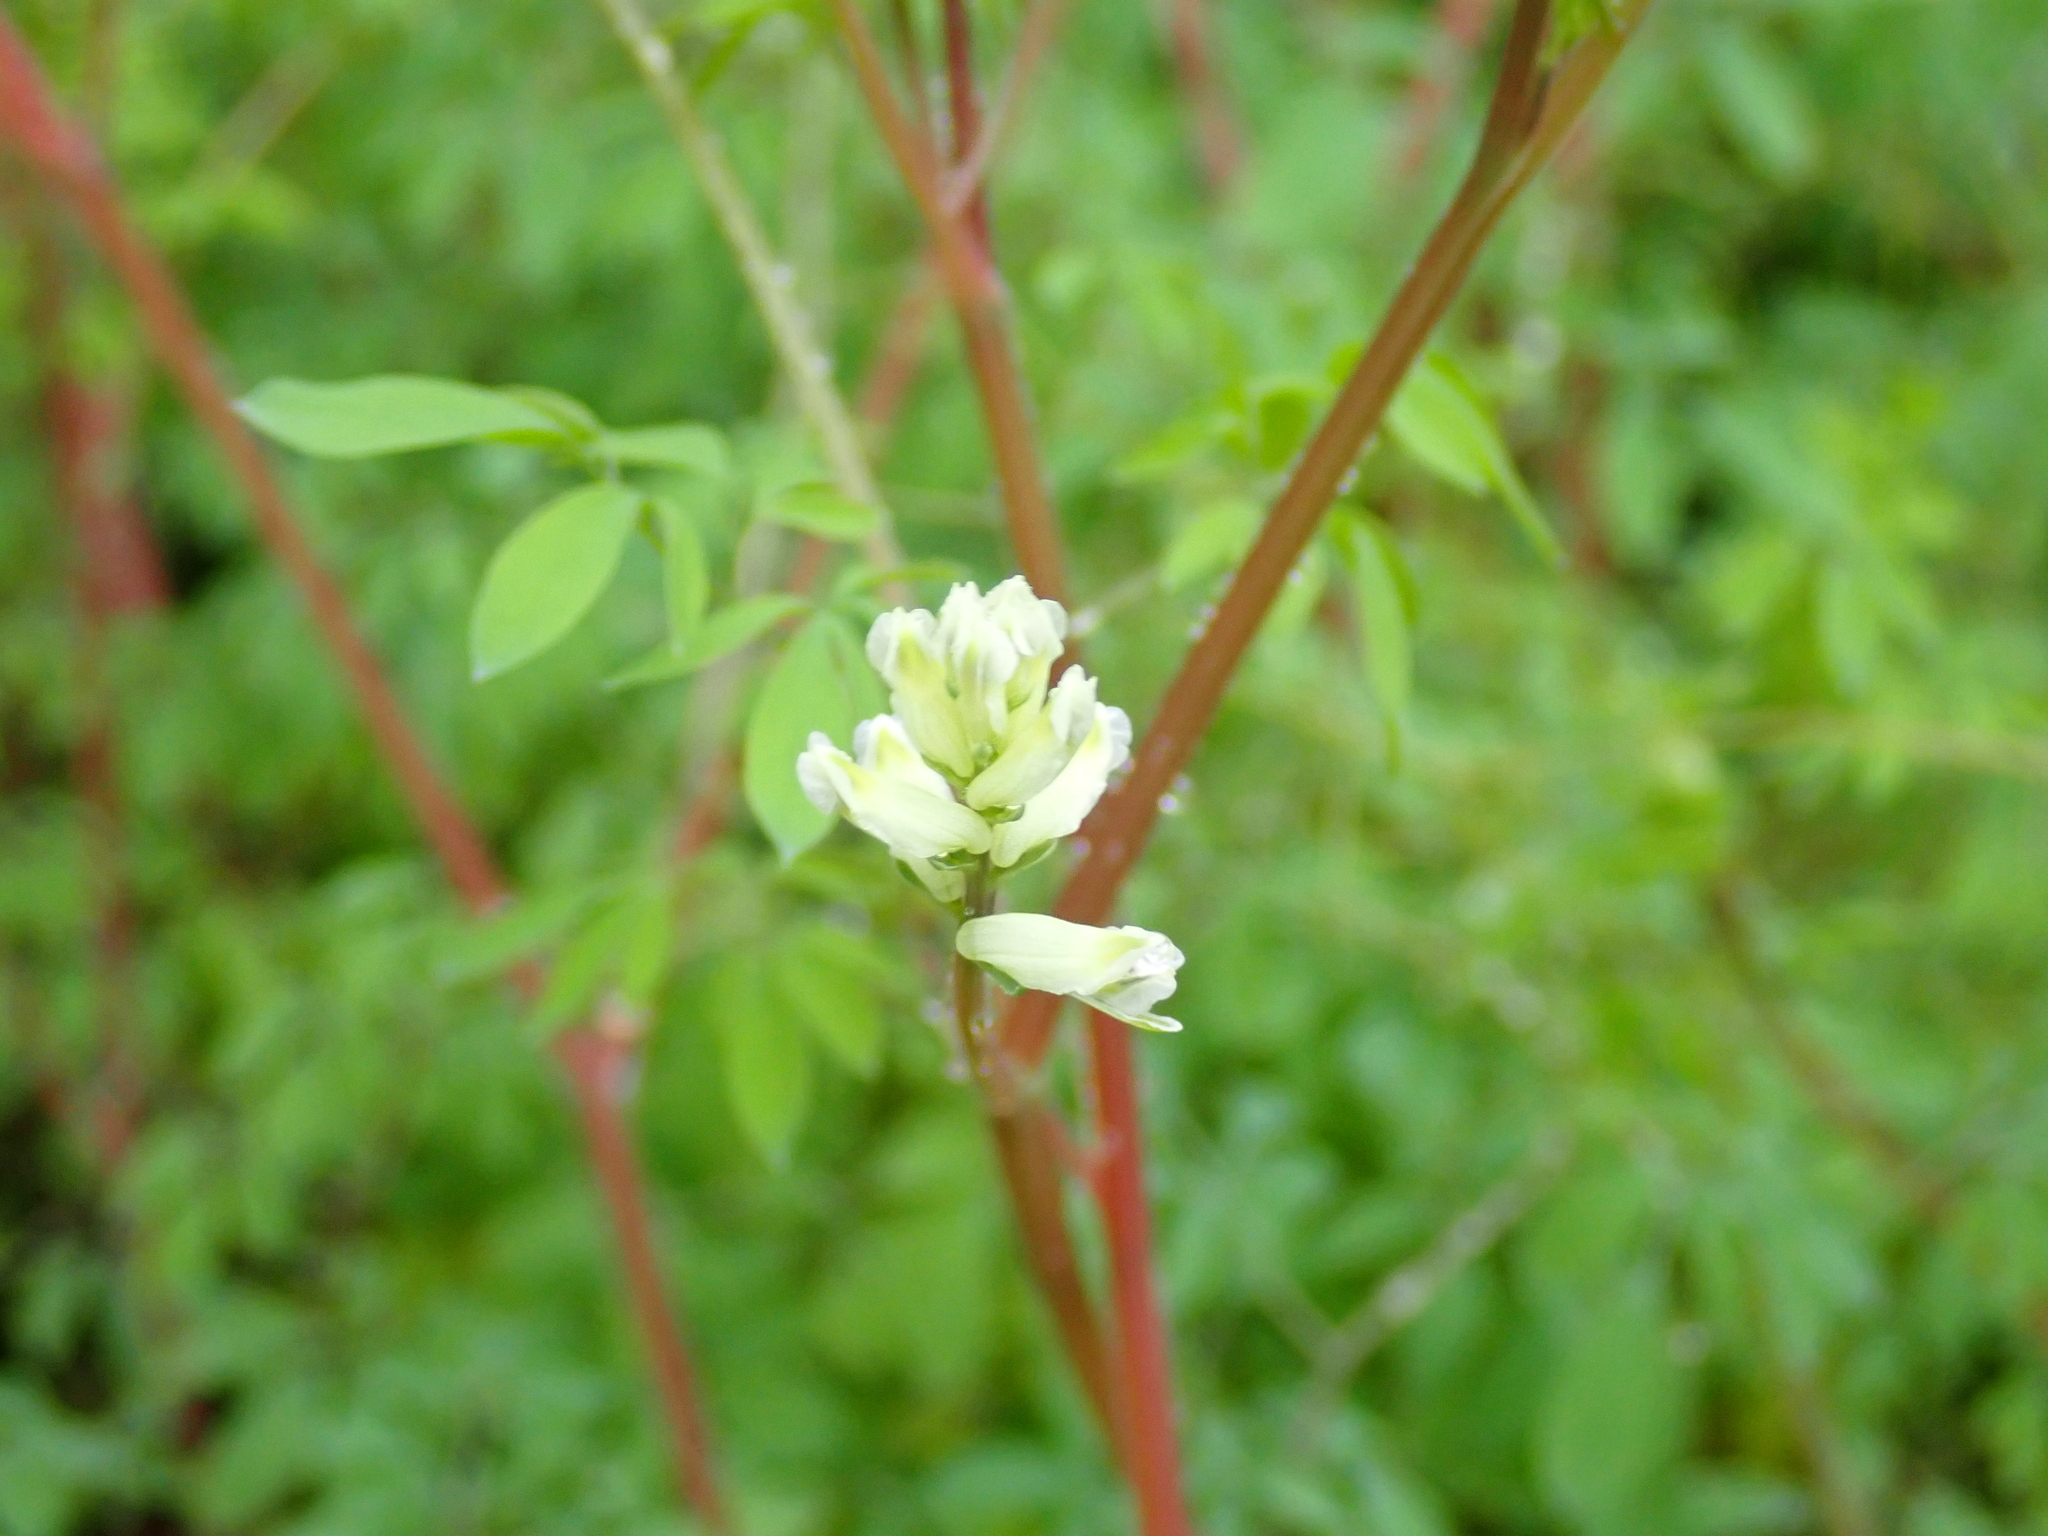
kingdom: Plantae
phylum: Tracheophyta
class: Magnoliopsida
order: Ranunculales
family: Papaveraceae
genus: Ceratocapnos
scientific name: Ceratocapnos claviculata
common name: Climbing corydalis
